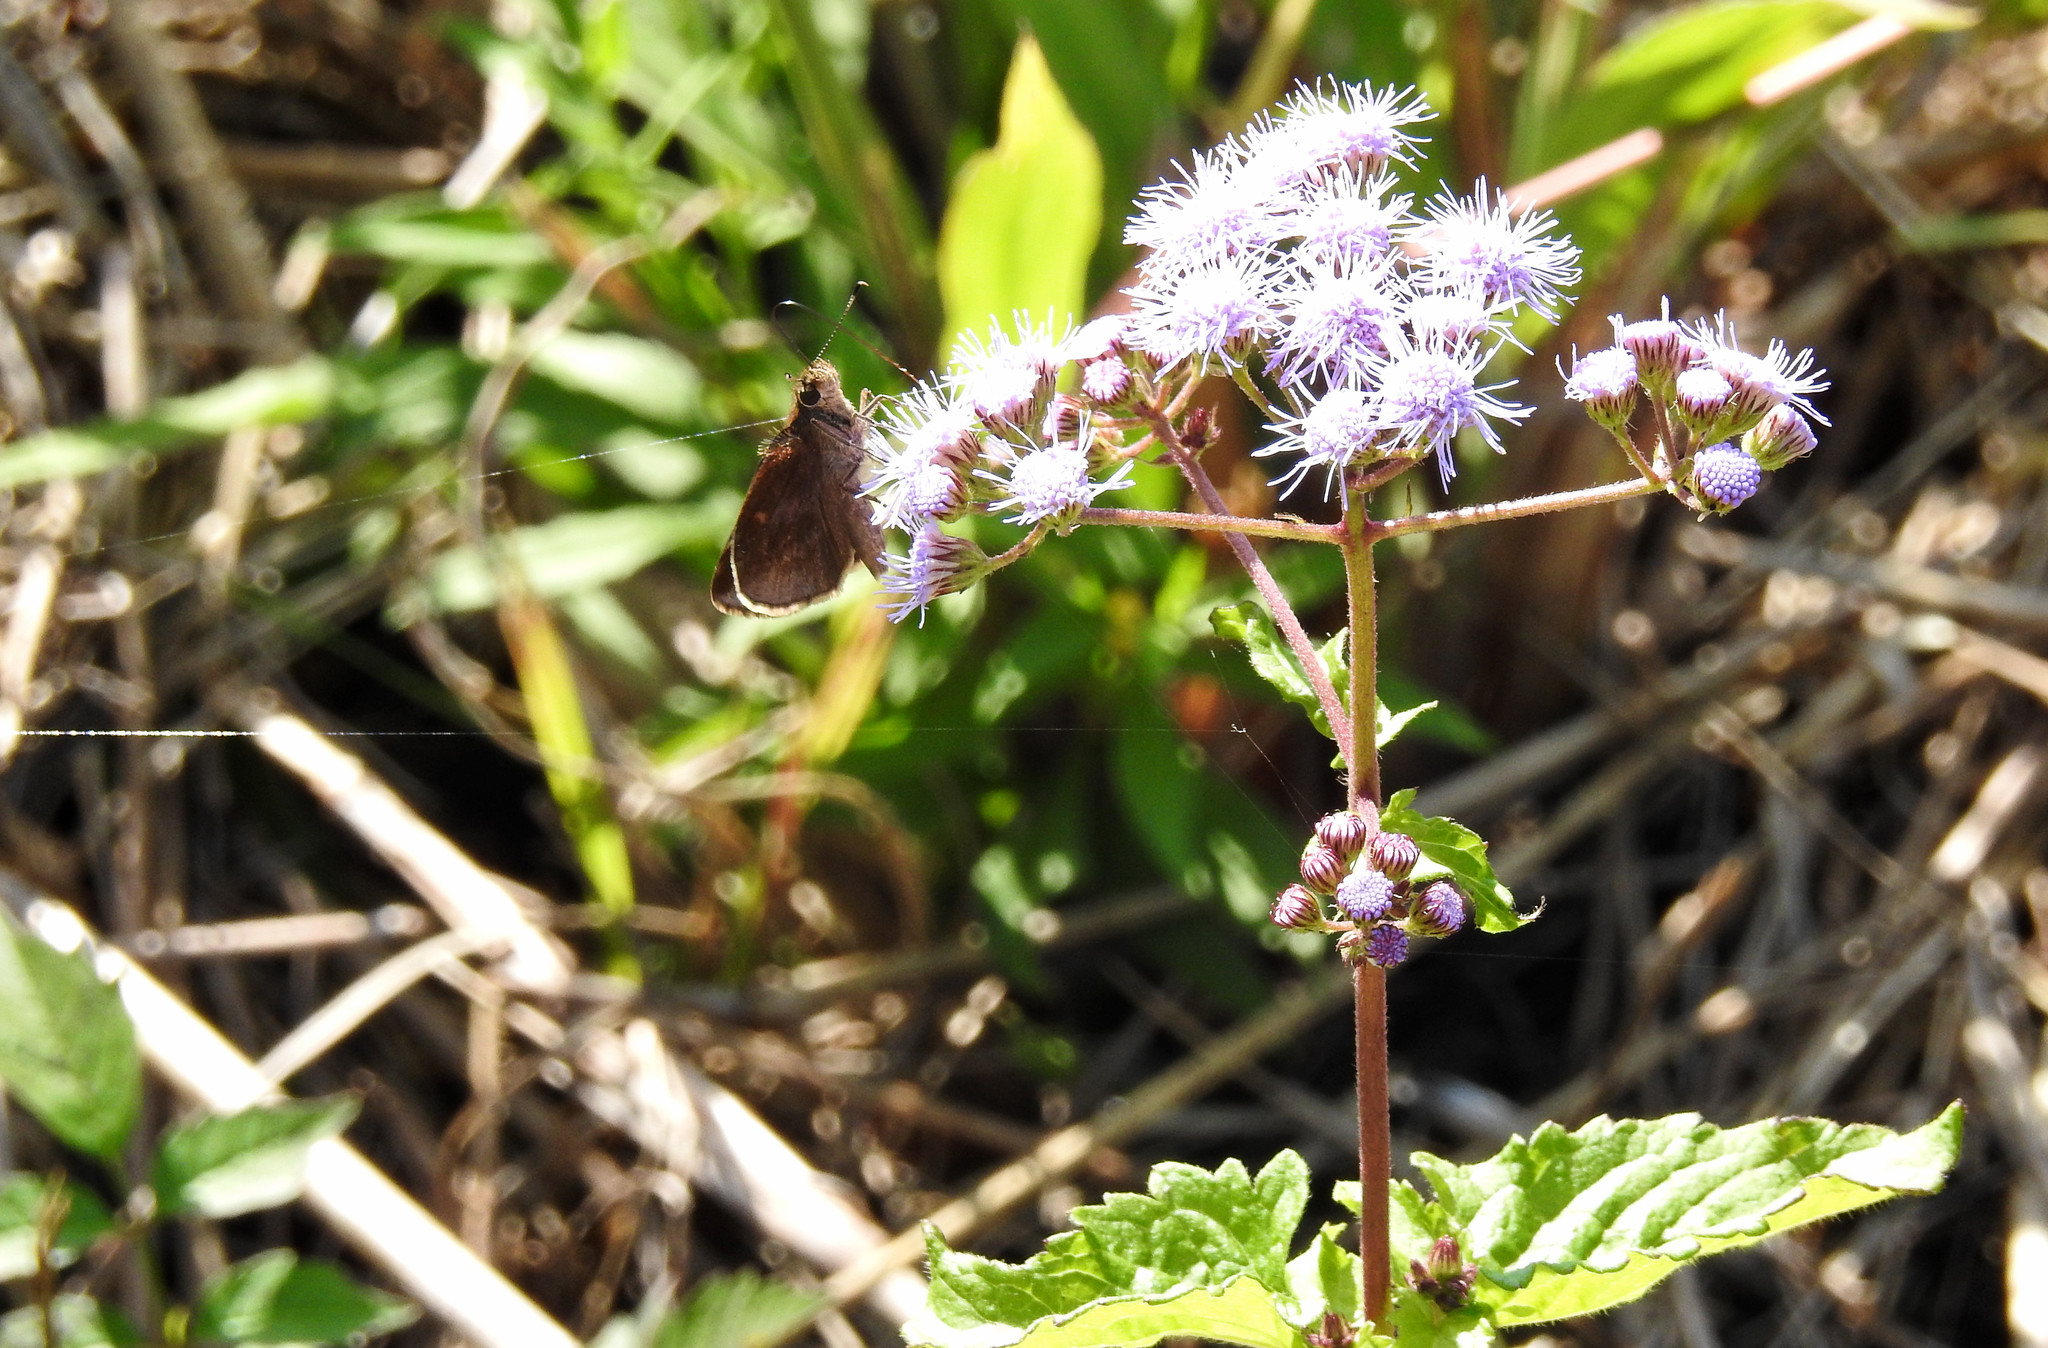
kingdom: Animalia
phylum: Arthropoda
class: Insecta
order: Lepidoptera
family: Hesperiidae
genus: Lerema
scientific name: Lerema accius
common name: Clouded skipper
